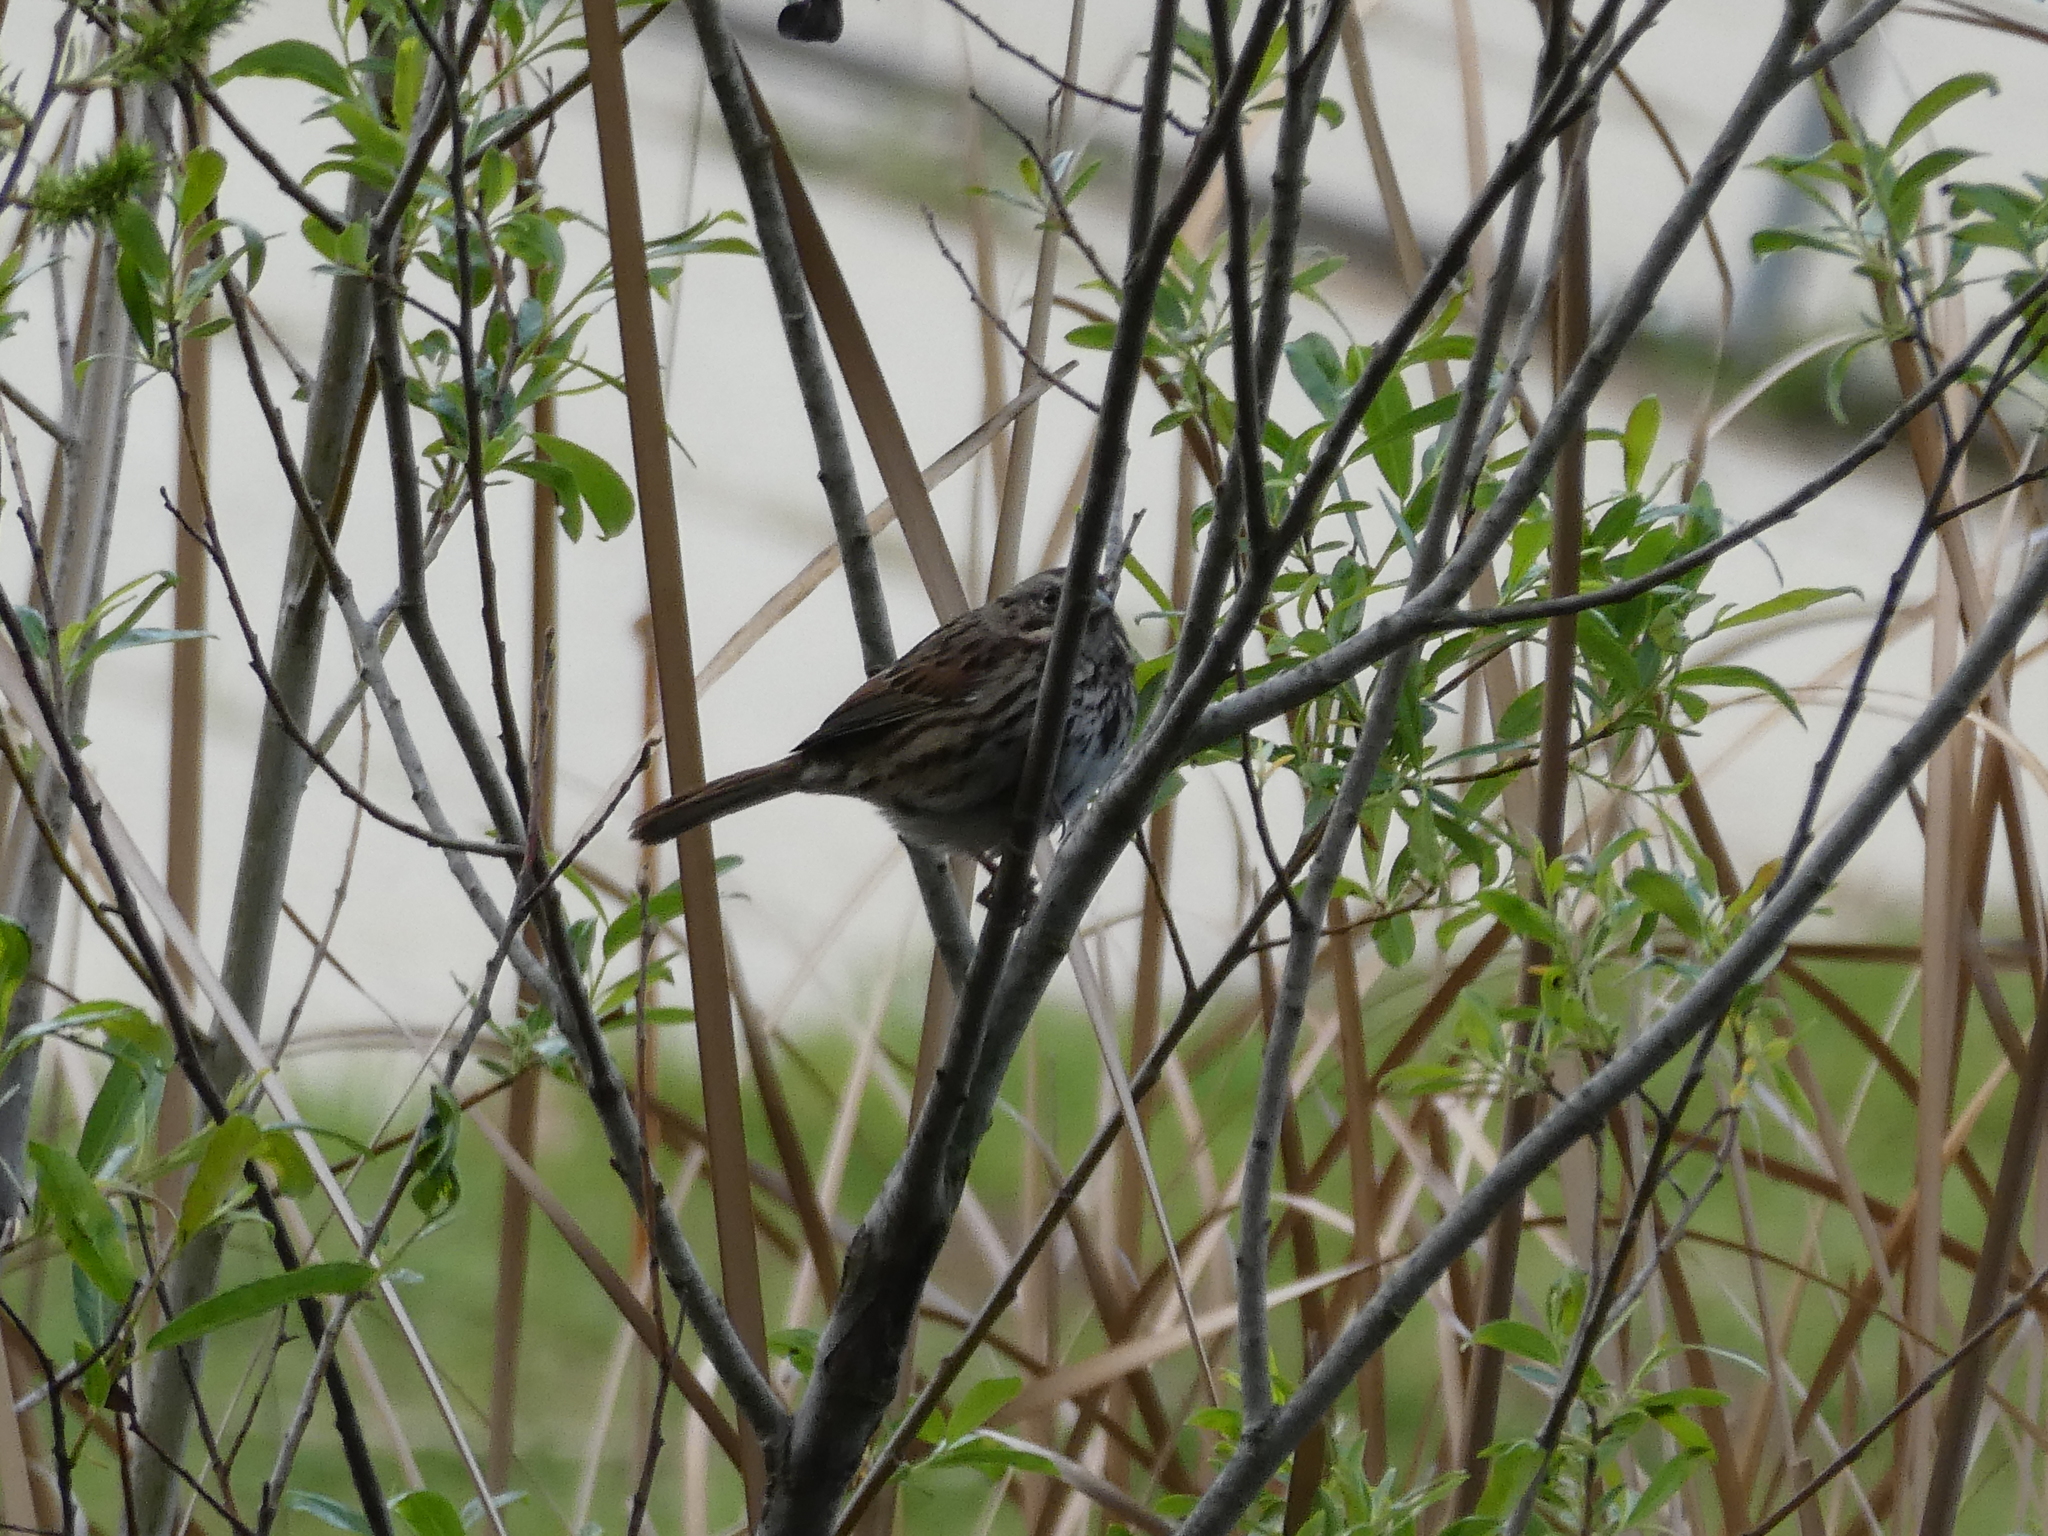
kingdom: Animalia
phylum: Chordata
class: Aves
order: Passeriformes
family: Passerellidae
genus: Melospiza
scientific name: Melospiza melodia
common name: Song sparrow
